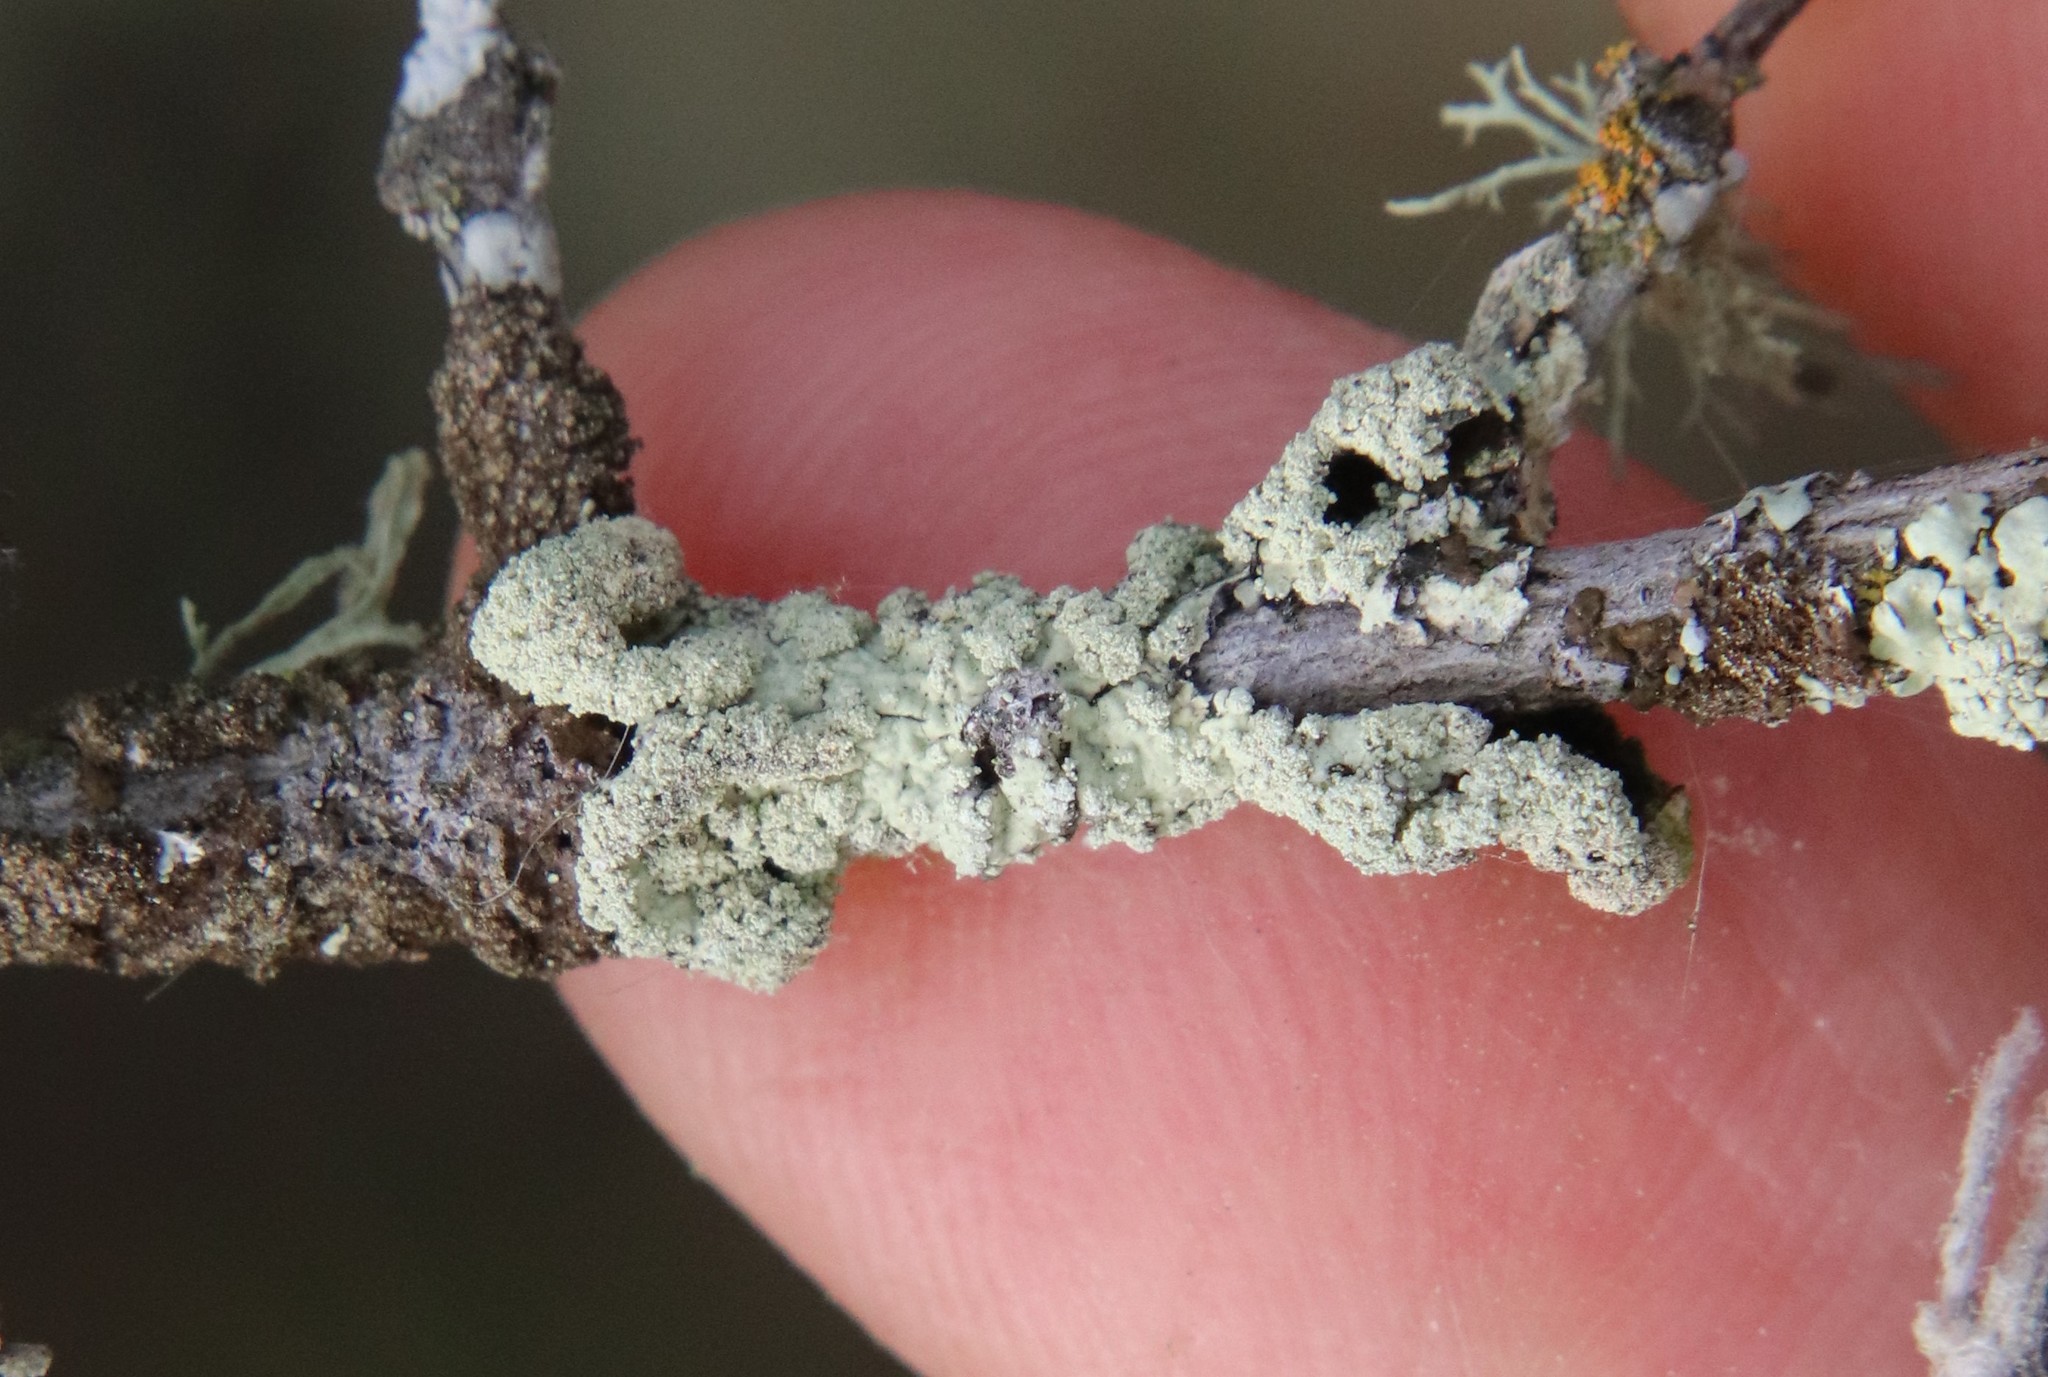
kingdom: Fungi
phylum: Ascomycota
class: Lecanoromycetes
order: Lecanorales
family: Parmeliaceae
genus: Flavoparmelia
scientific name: Flavoparmelia subcapitata
